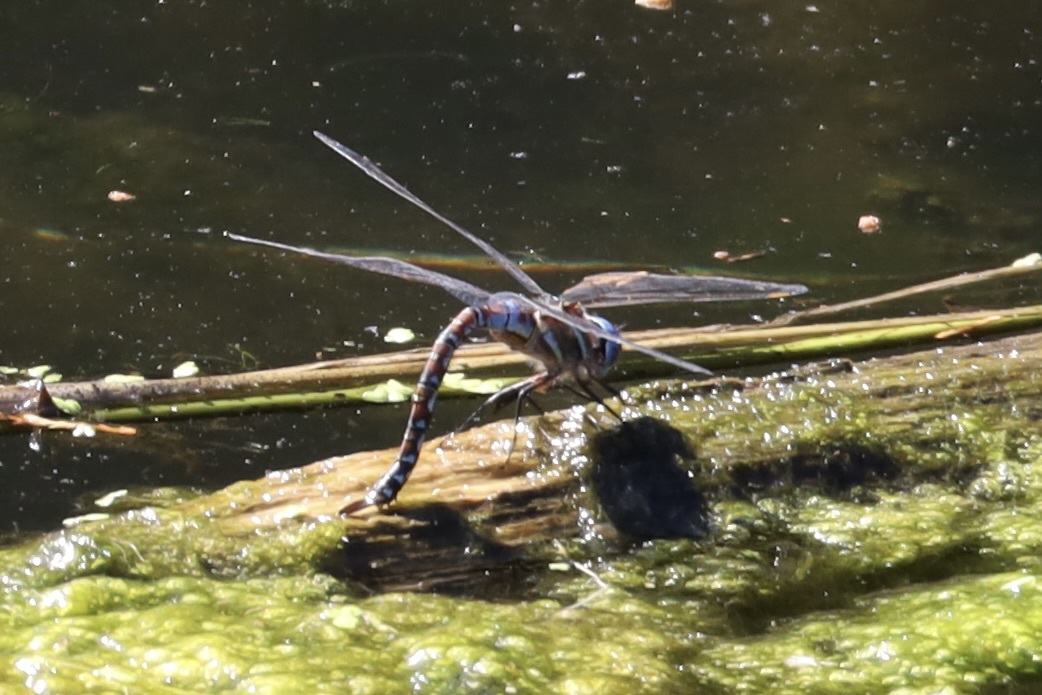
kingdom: Animalia
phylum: Arthropoda
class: Insecta
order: Odonata
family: Aeshnidae
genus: Rhionaeschna
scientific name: Rhionaeschna multicolor
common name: Blue-eyed darner
